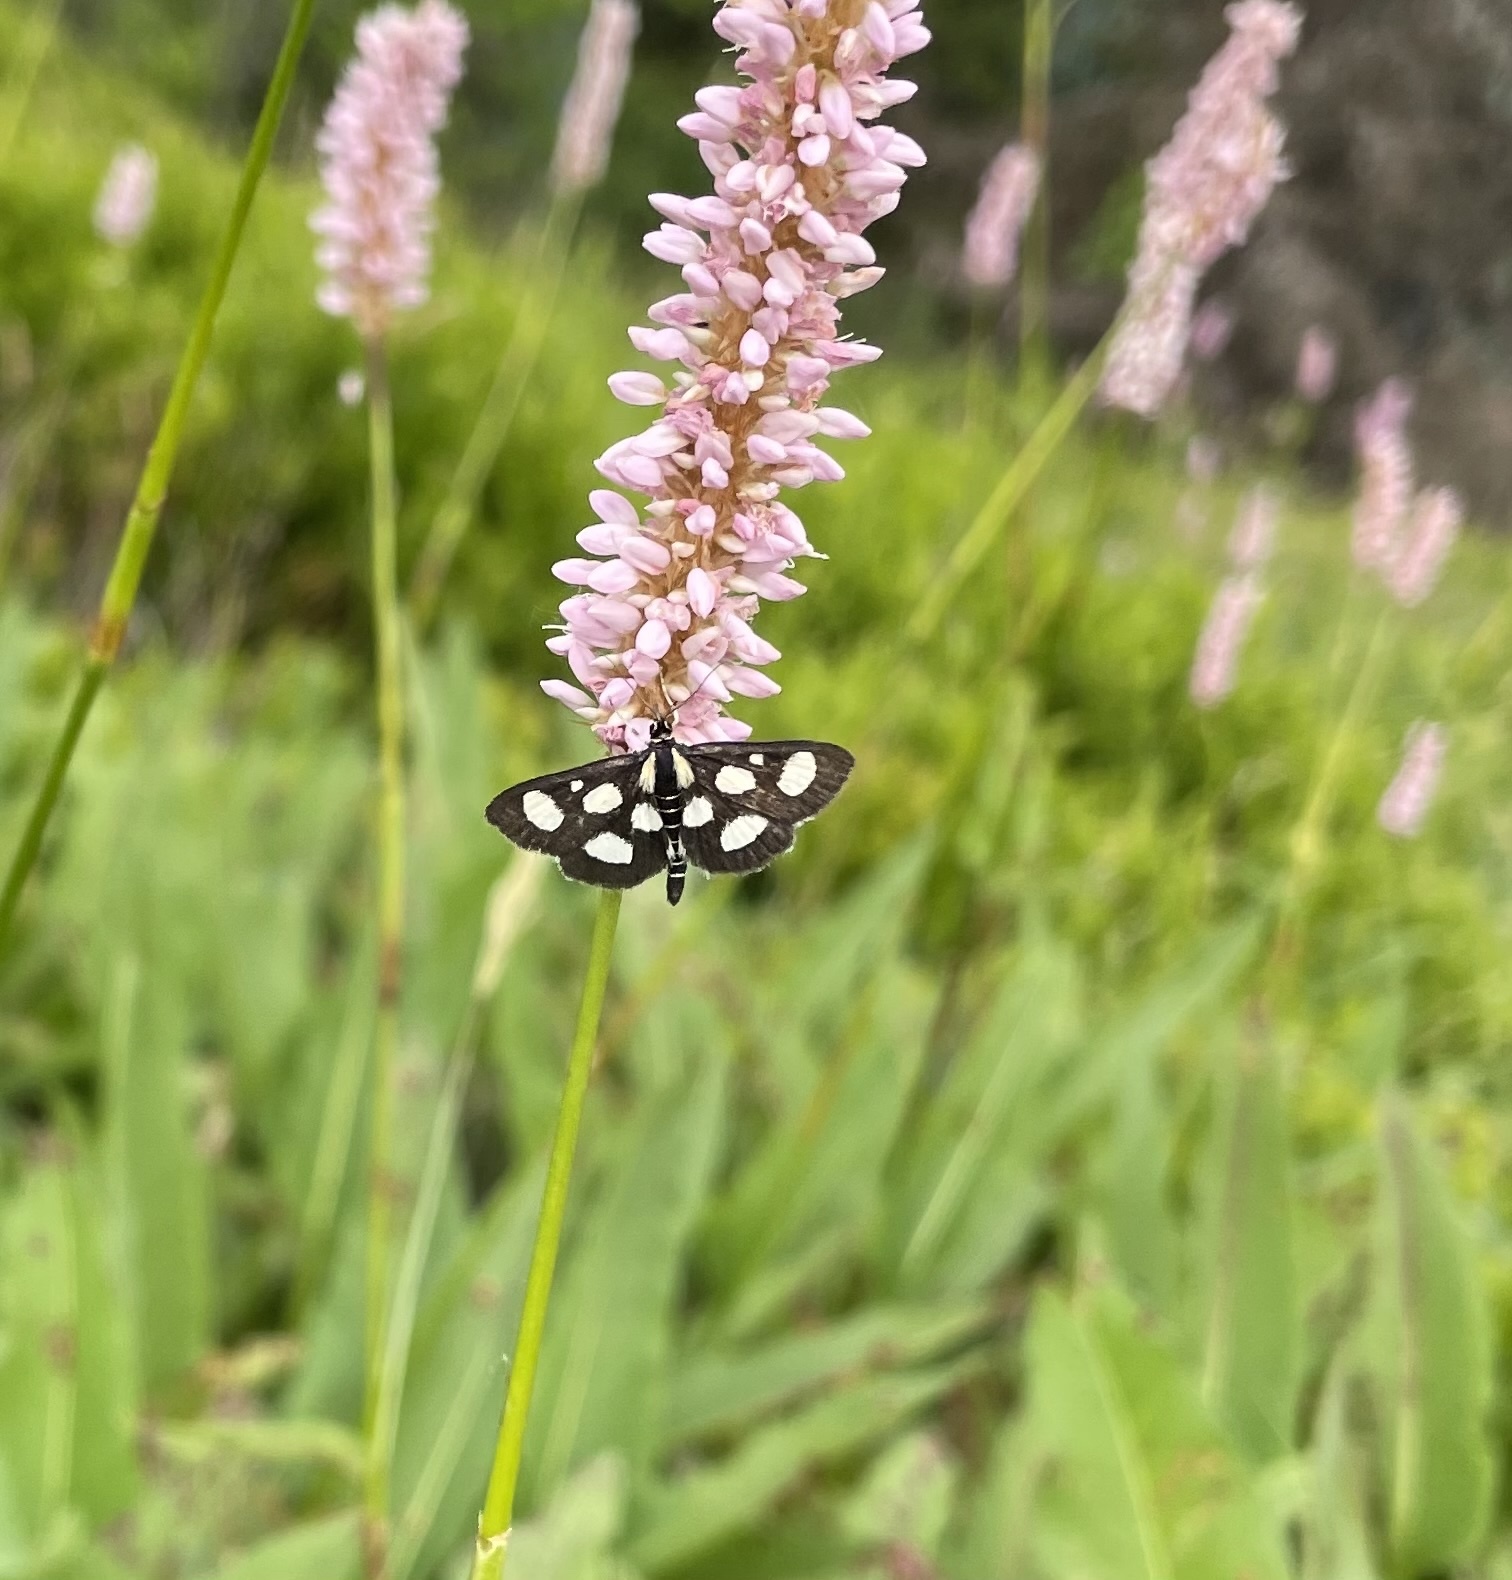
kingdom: Animalia
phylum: Arthropoda
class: Insecta
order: Lepidoptera
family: Crambidae
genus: Anania
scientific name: Anania funebris
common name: White-spotted sable moth
